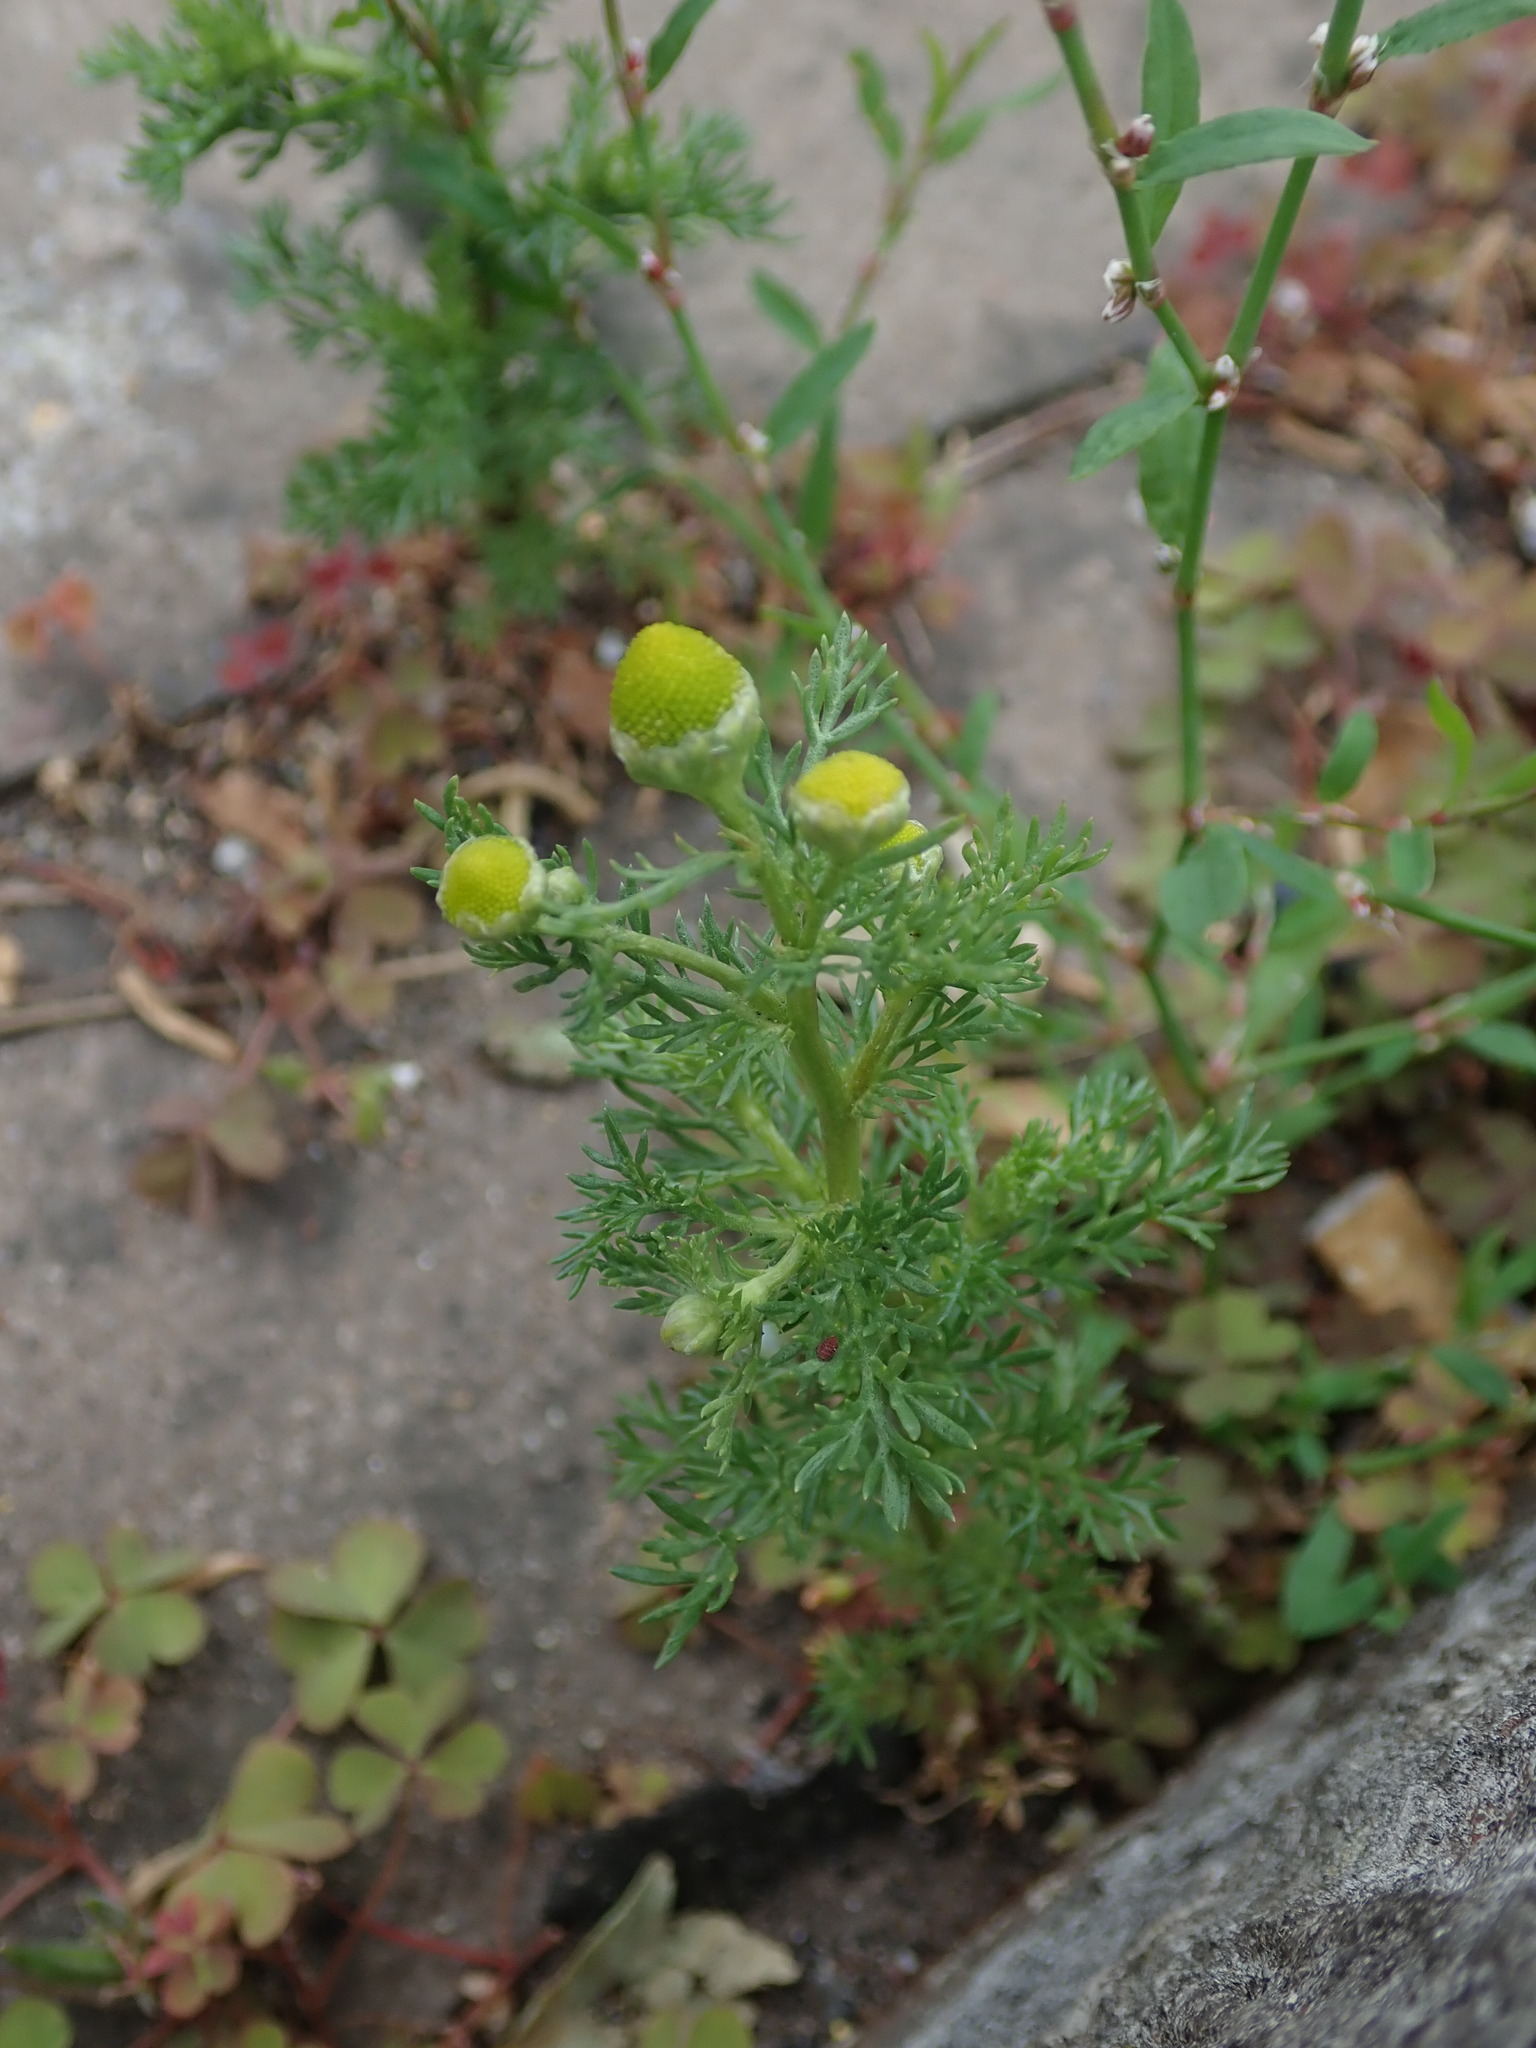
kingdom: Plantae
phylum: Tracheophyta
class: Magnoliopsida
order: Asterales
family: Asteraceae
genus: Matricaria
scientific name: Matricaria discoidea
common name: Disc mayweed
